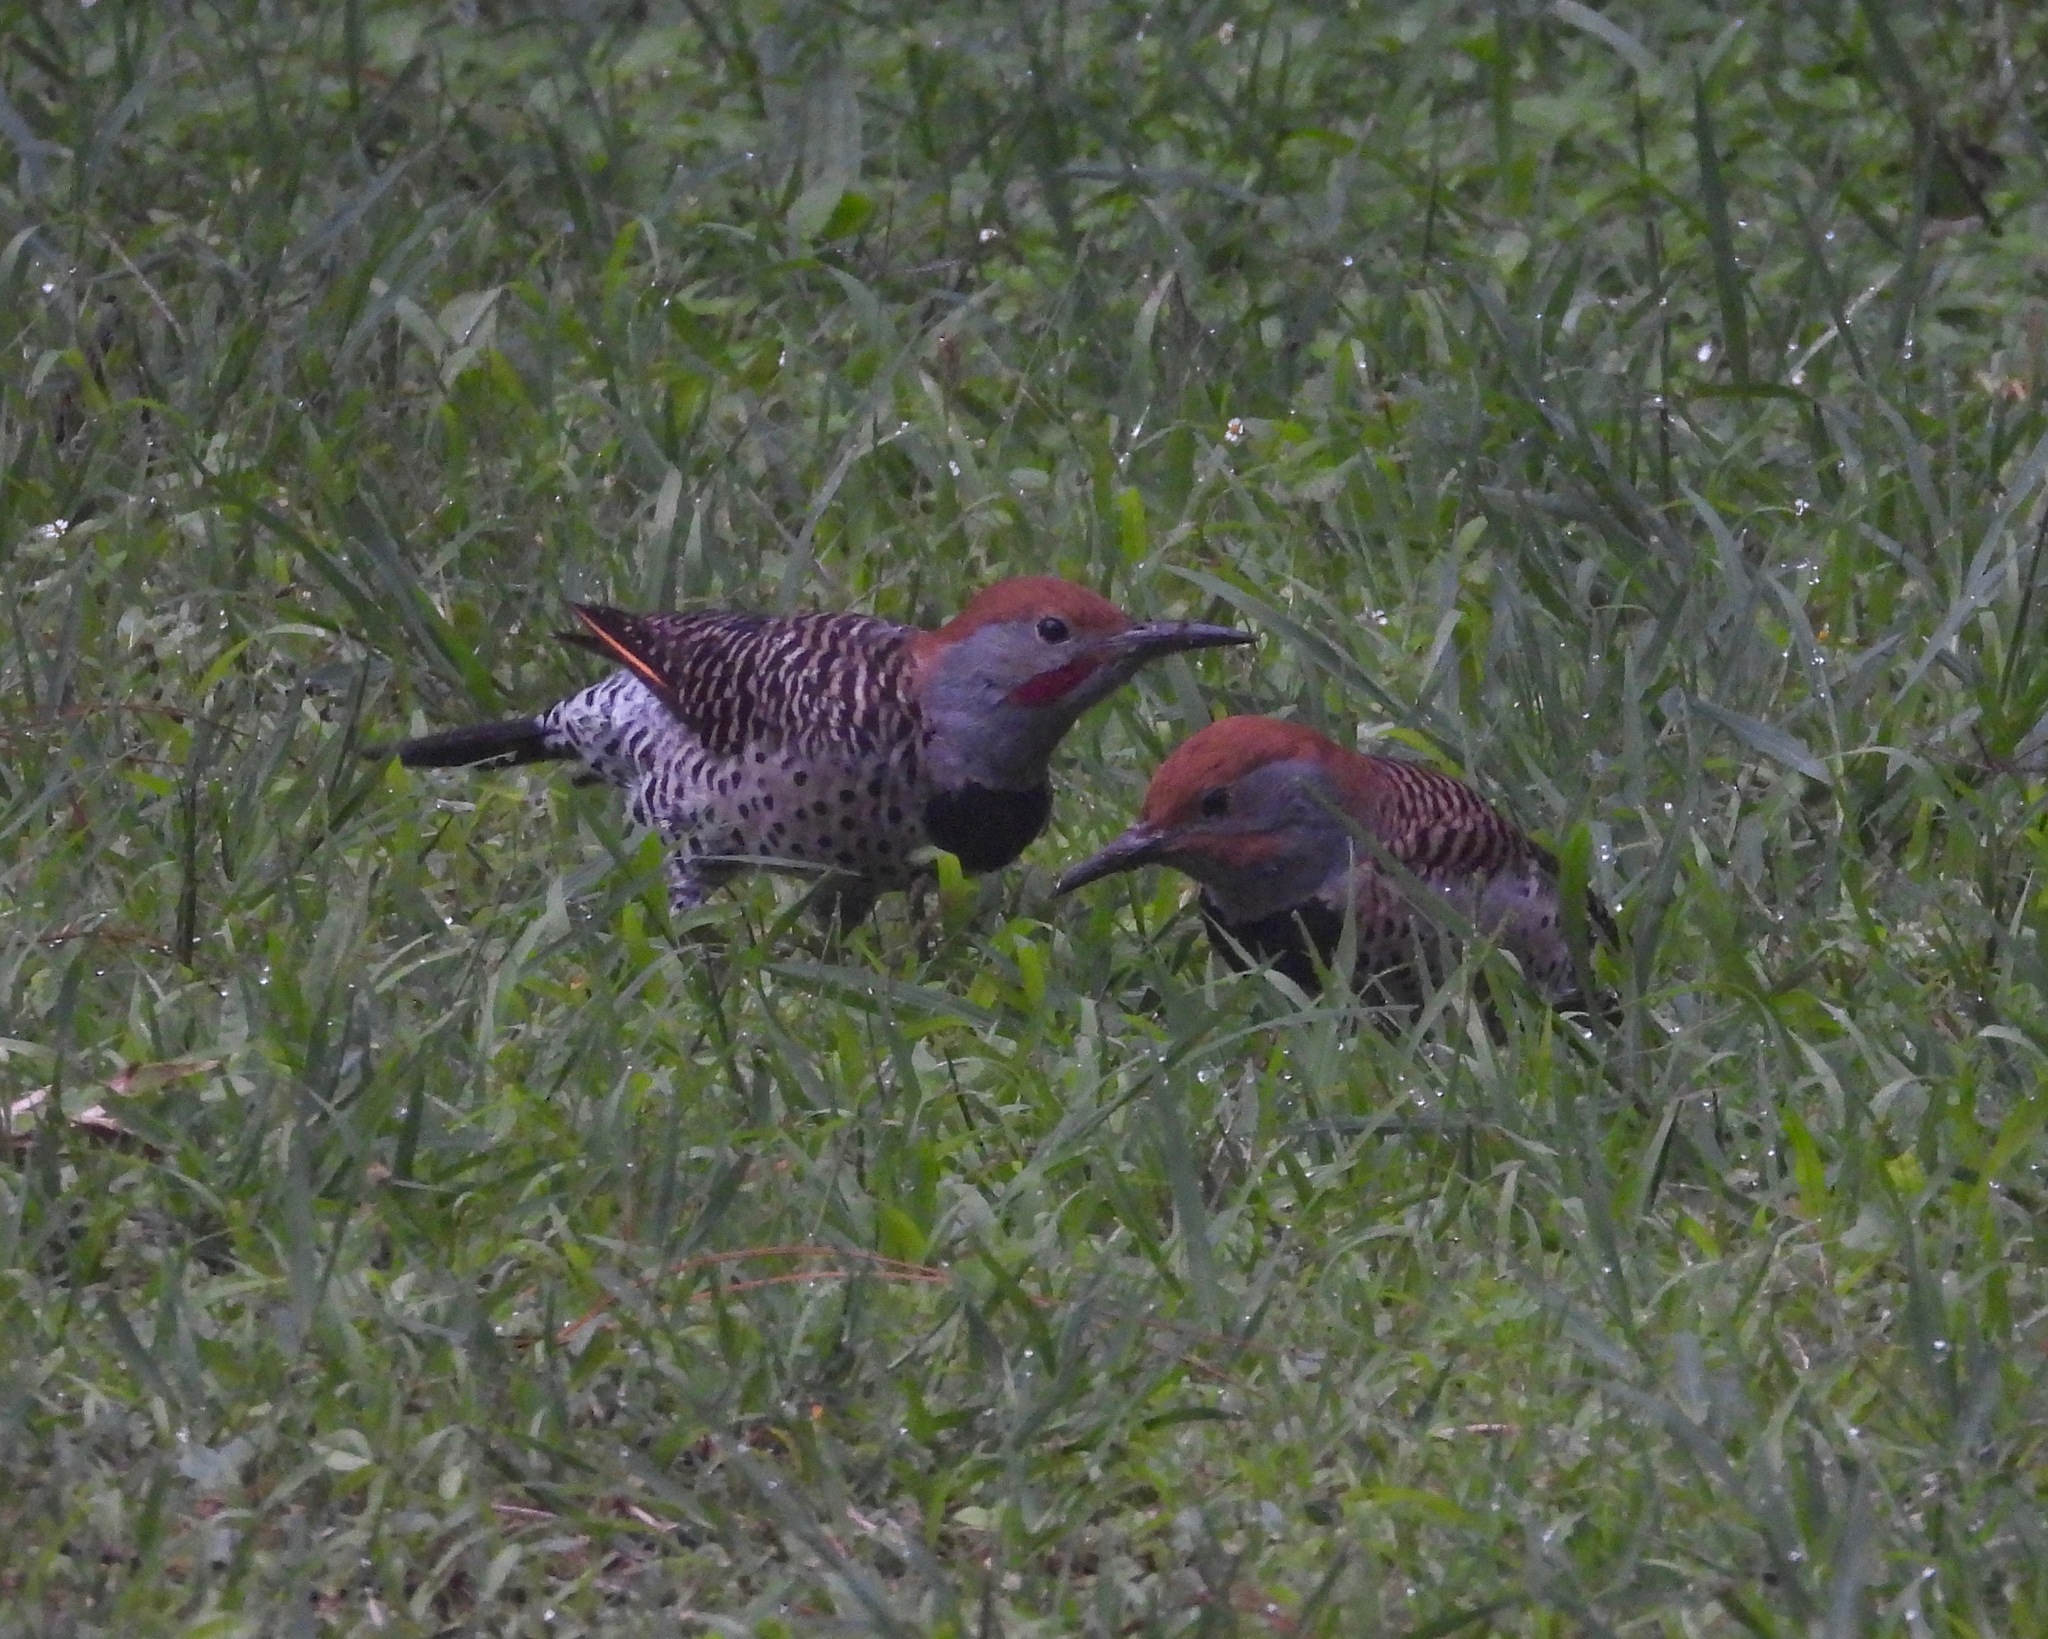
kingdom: Animalia
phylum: Chordata
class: Aves
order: Piciformes
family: Picidae
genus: Colaptes
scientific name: Colaptes auratus
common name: Northern flicker
